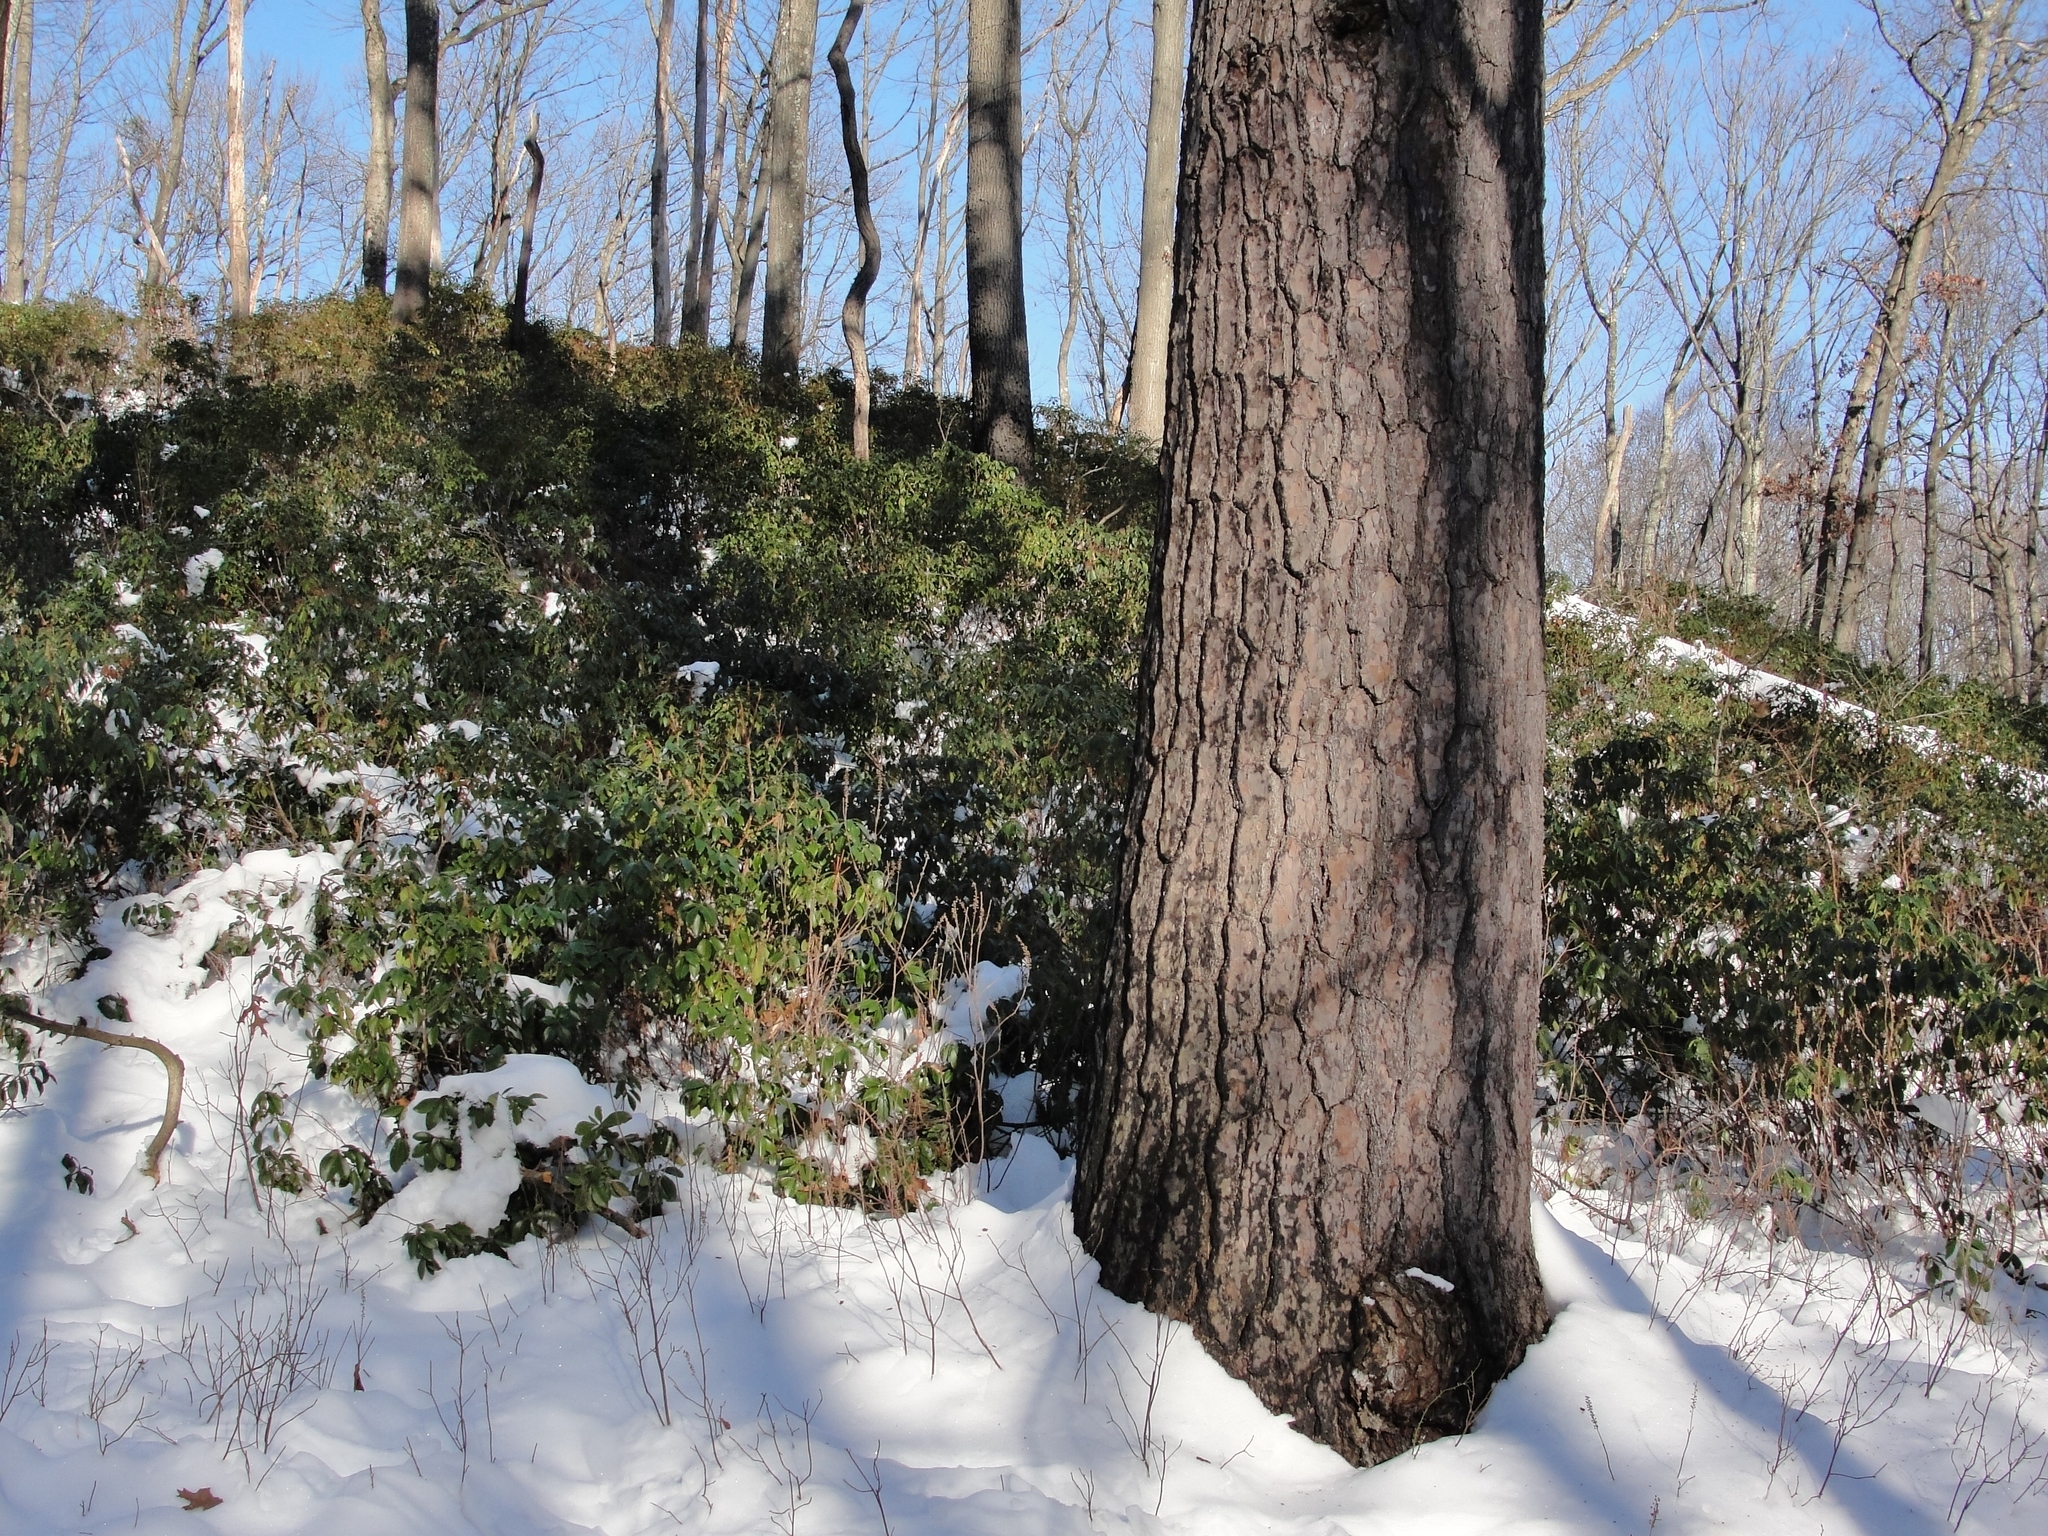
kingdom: Plantae
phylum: Tracheophyta
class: Pinopsida
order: Pinales
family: Pinaceae
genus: Pinus
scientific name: Pinus strobus
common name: Weymouth pine
